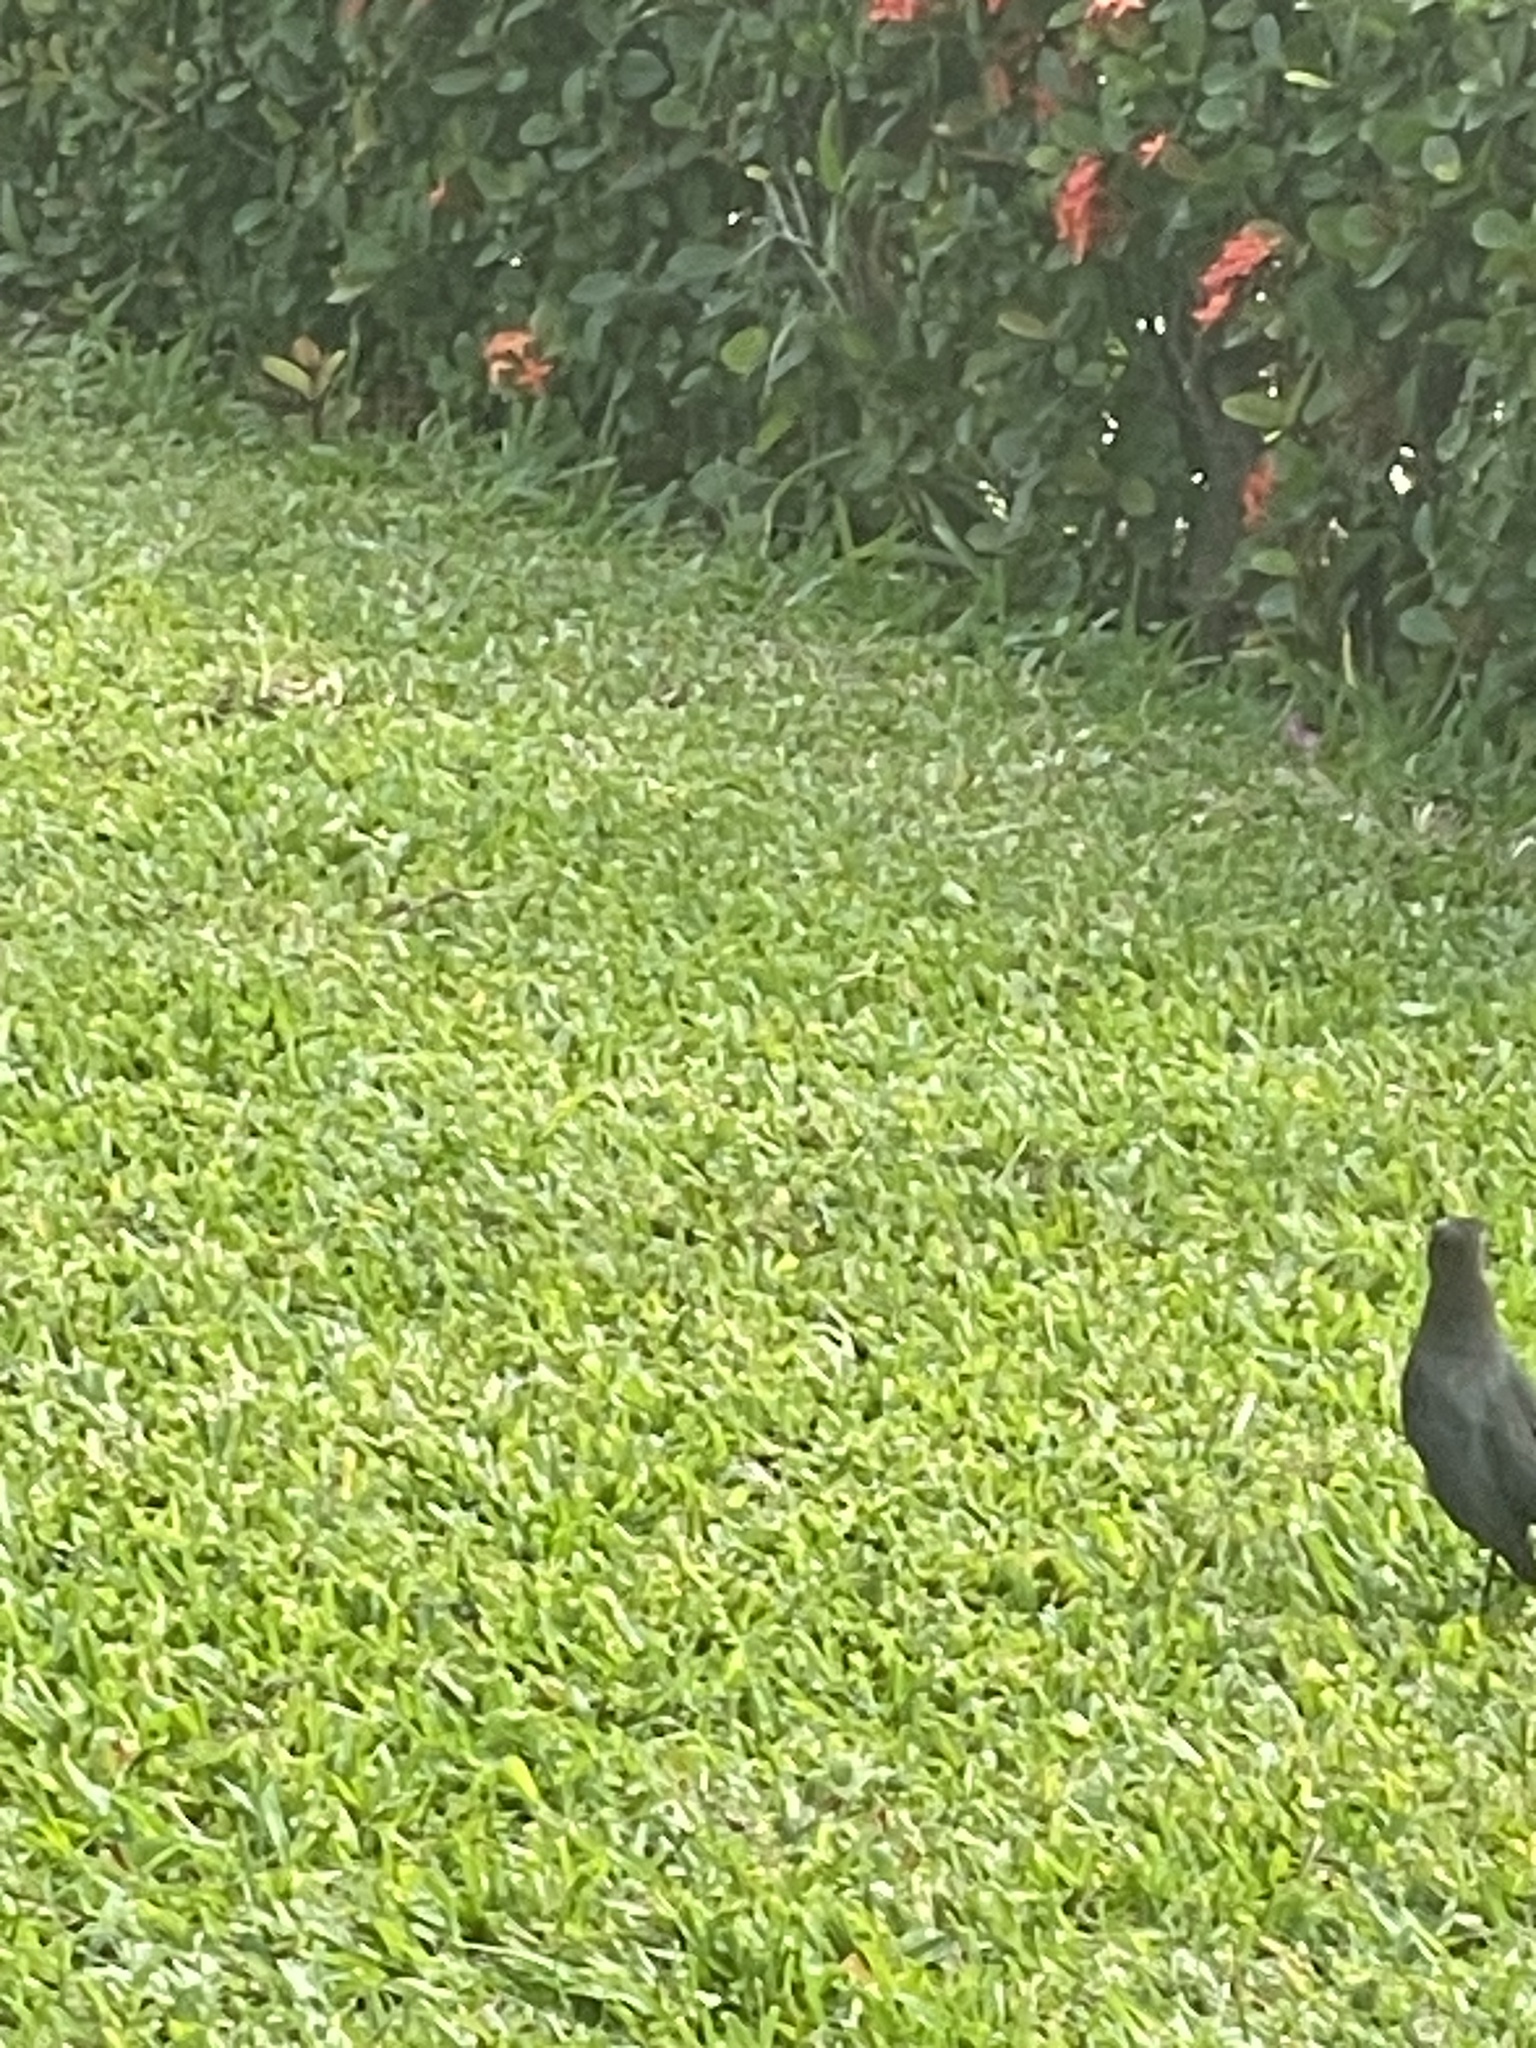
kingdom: Animalia
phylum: Chordata
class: Aves
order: Passeriformes
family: Icteridae
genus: Quiscalus
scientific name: Quiscalus mexicanus
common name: Great-tailed grackle
